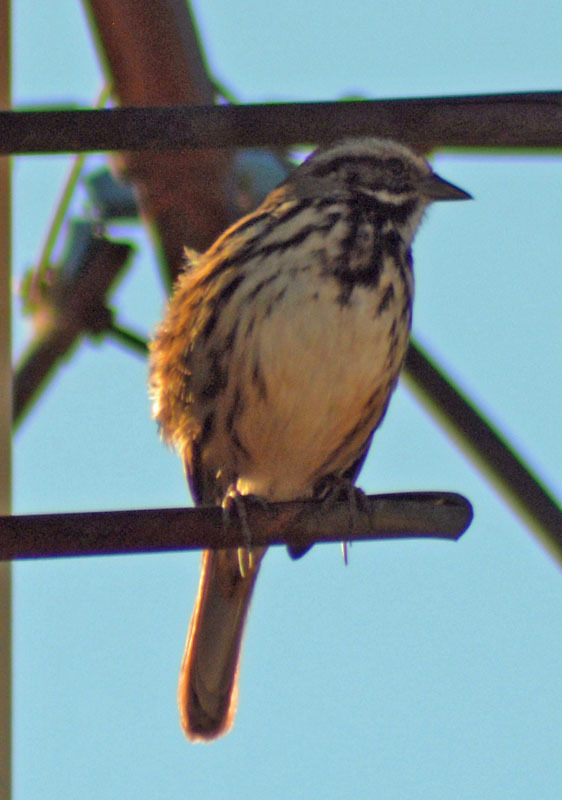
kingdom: Animalia
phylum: Chordata
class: Aves
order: Passeriformes
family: Passerellidae
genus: Melospiza
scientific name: Melospiza melodia
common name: Song sparrow
